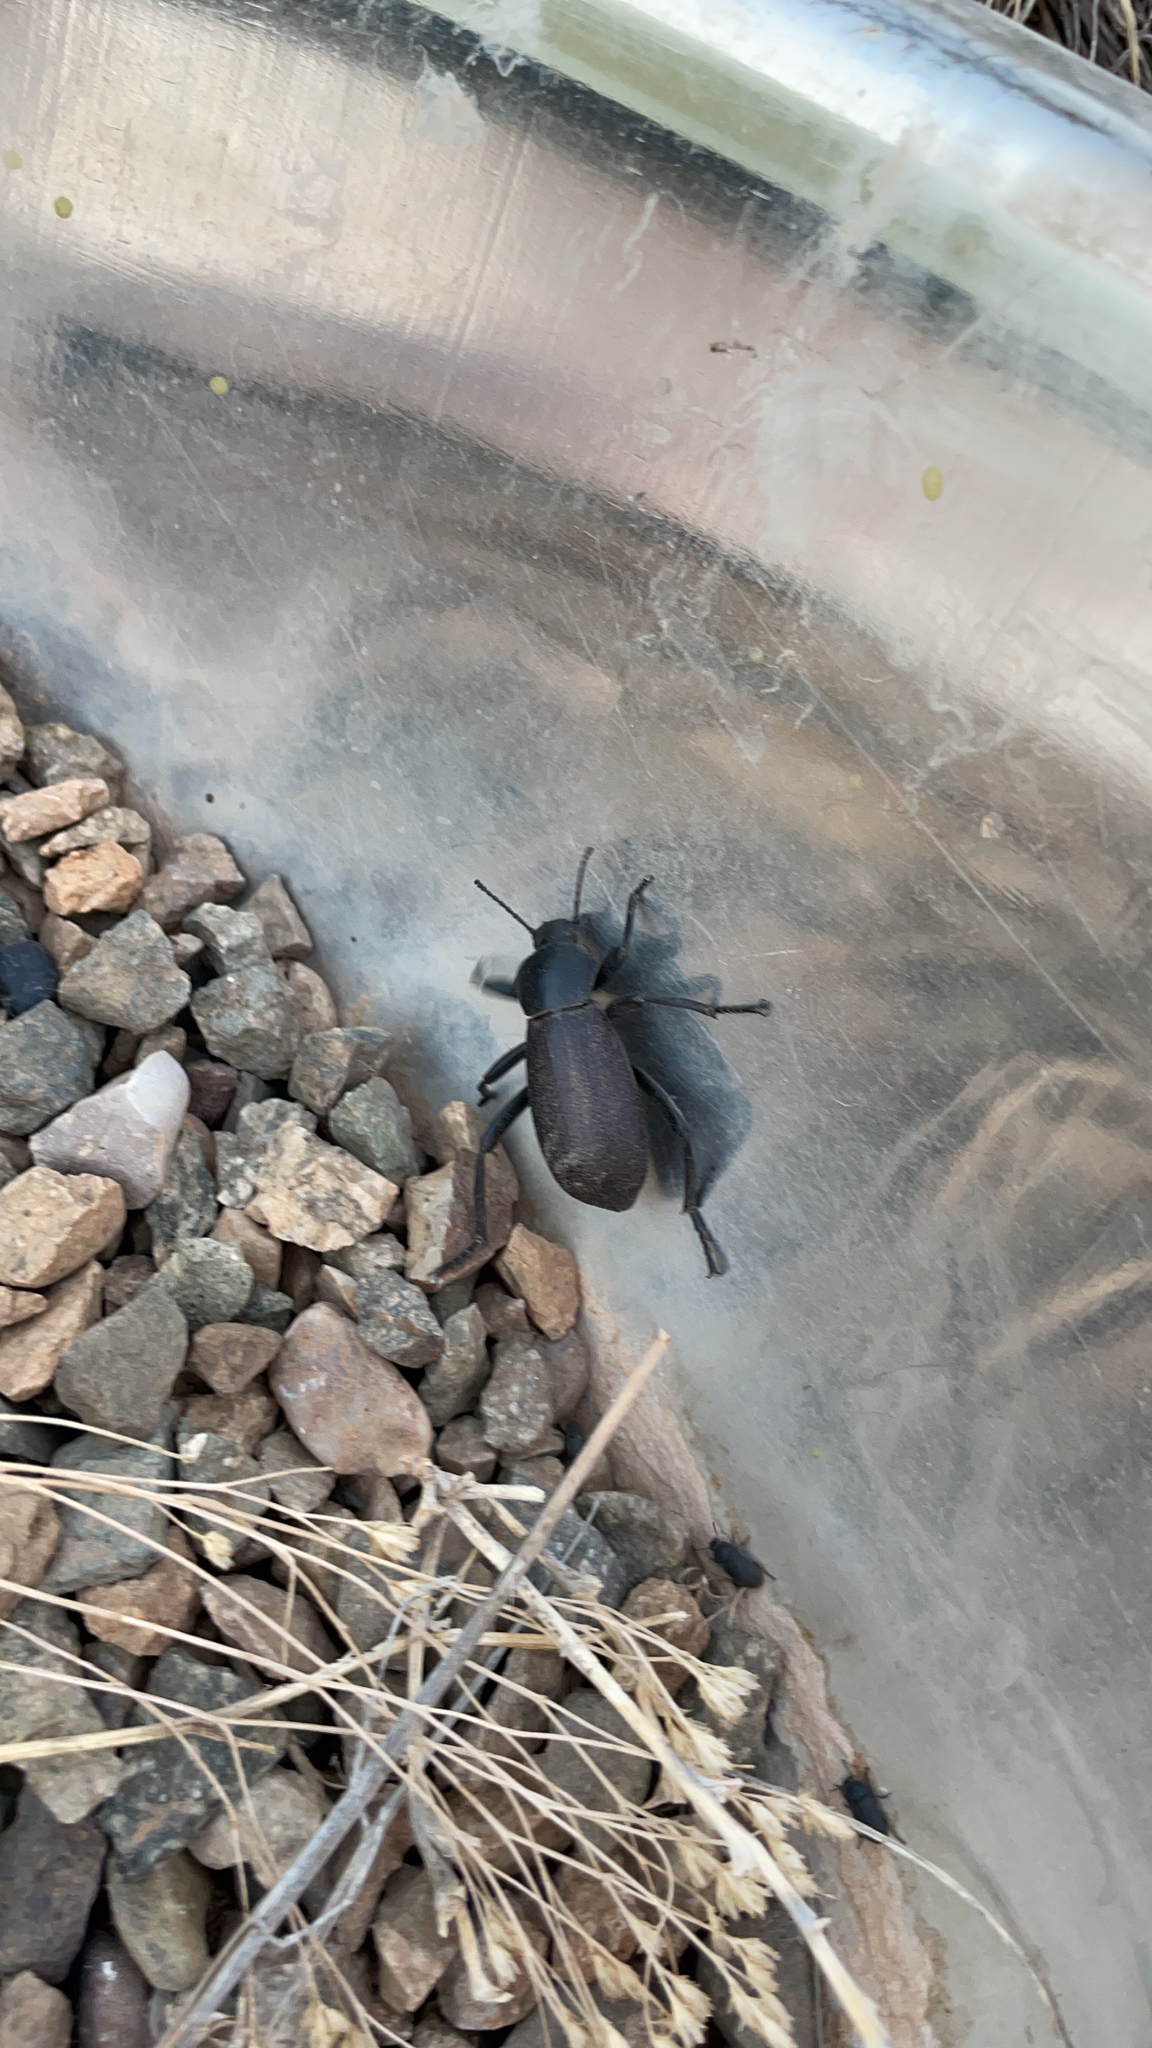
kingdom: Animalia
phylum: Arthropoda
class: Insecta
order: Coleoptera
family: Tenebrionidae
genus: Eleodes
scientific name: Eleodes obscura
